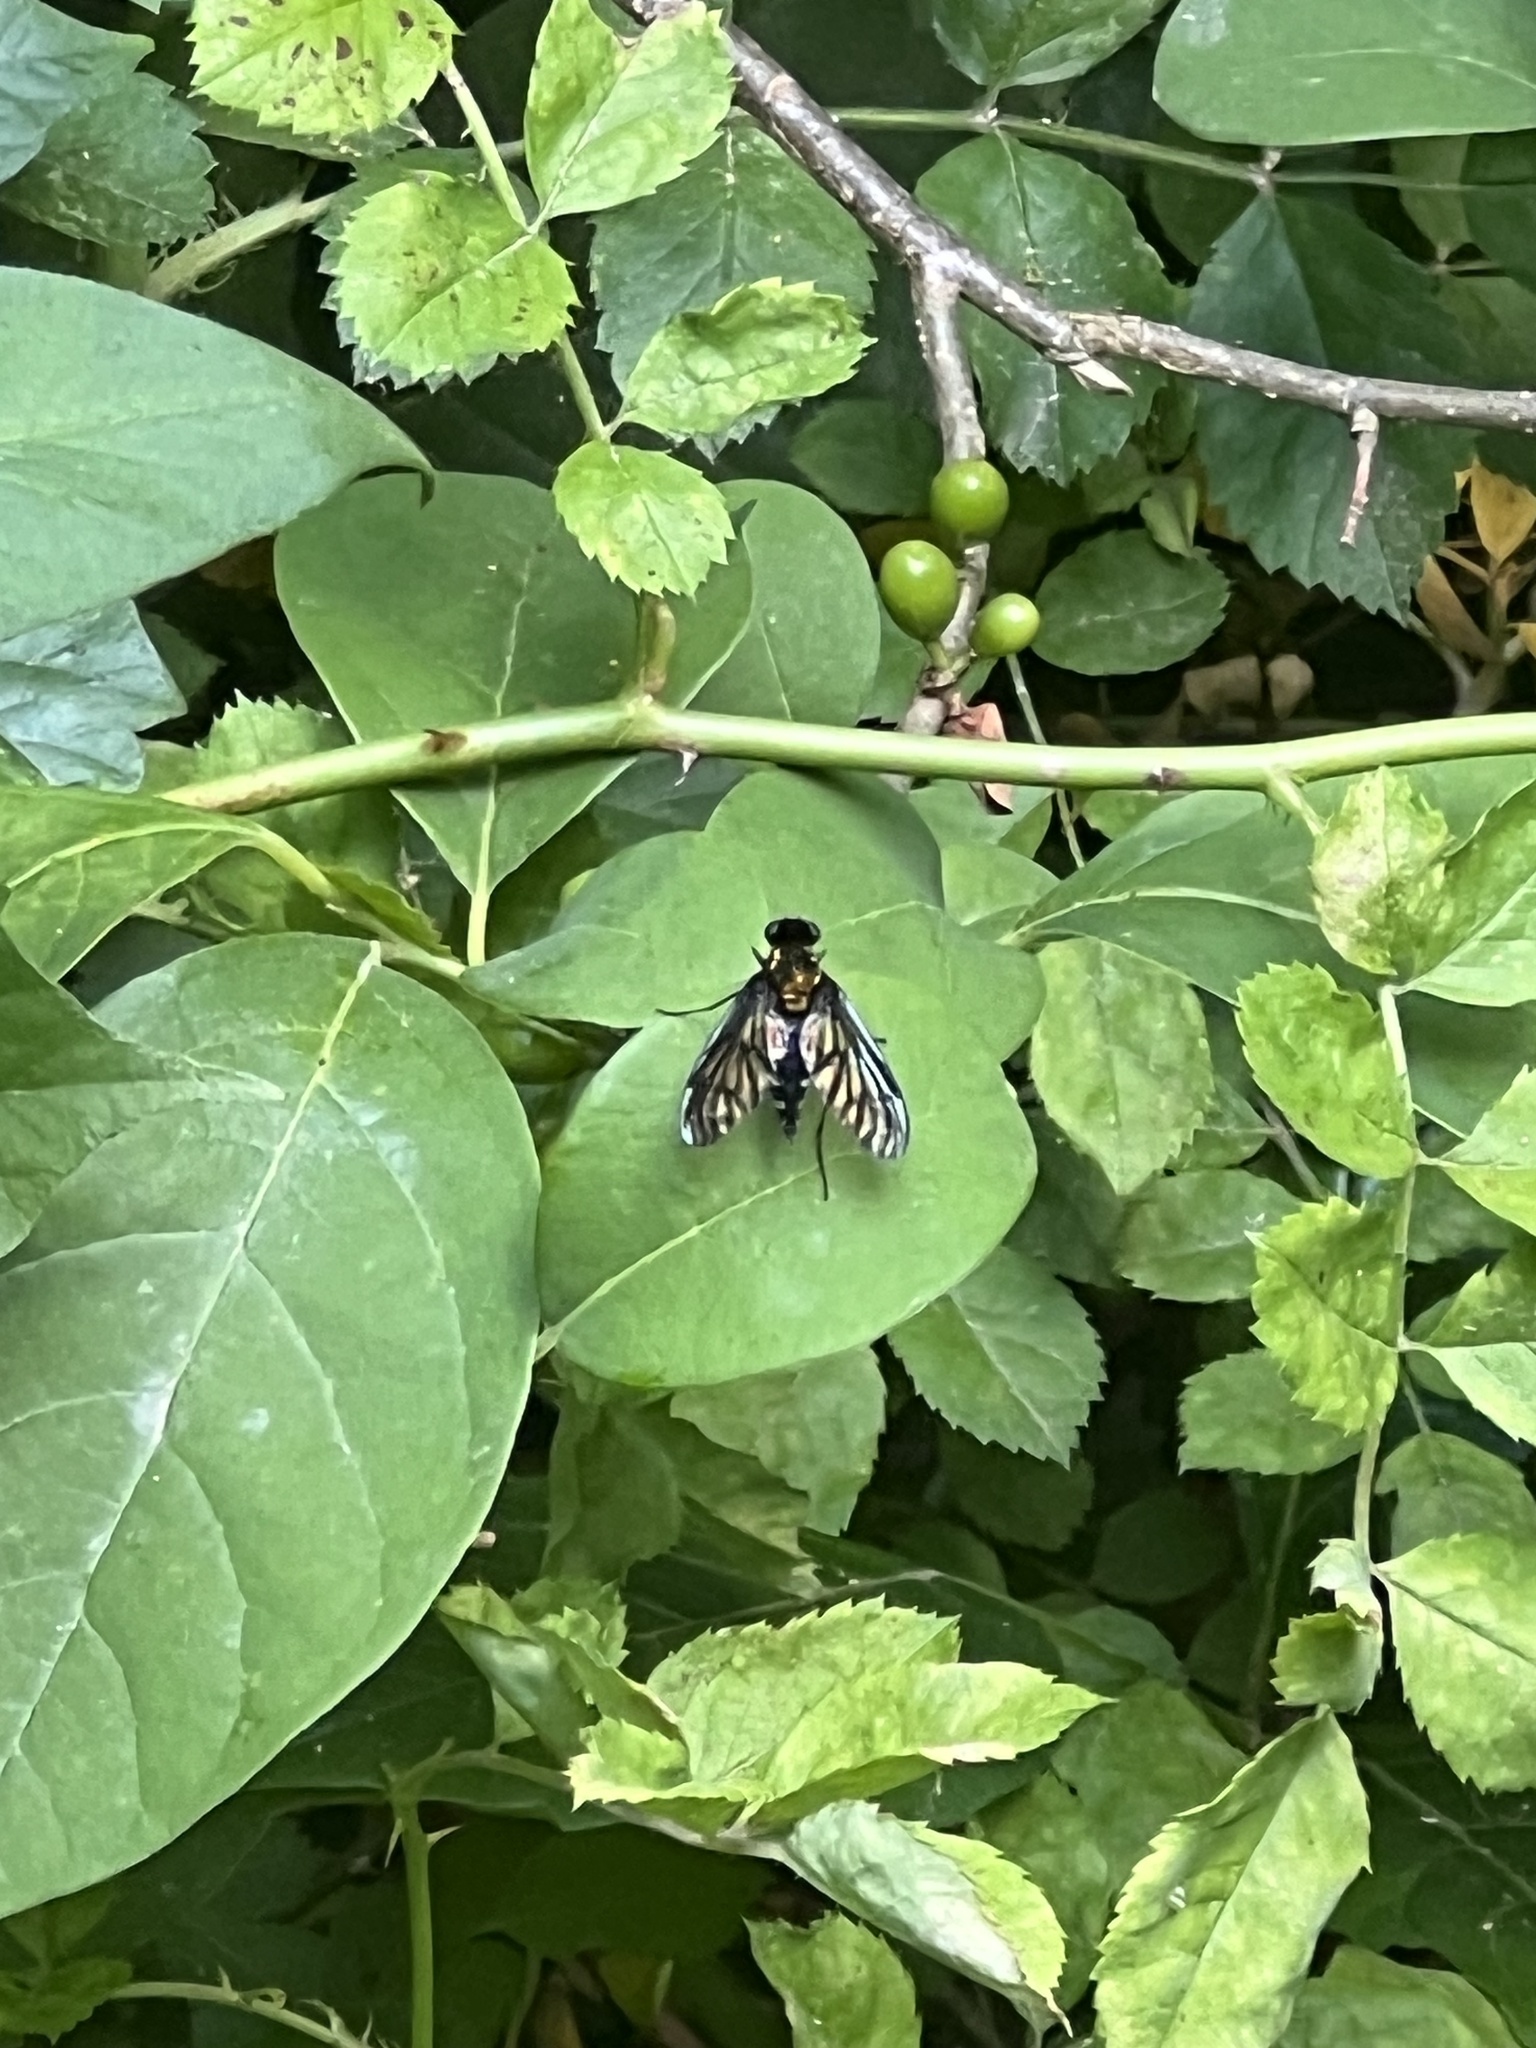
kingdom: Animalia
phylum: Arthropoda
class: Insecta
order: Diptera
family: Rhagionidae
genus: Chrysopilus
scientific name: Chrysopilus thoracicus
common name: Golden-backed snipe fly
